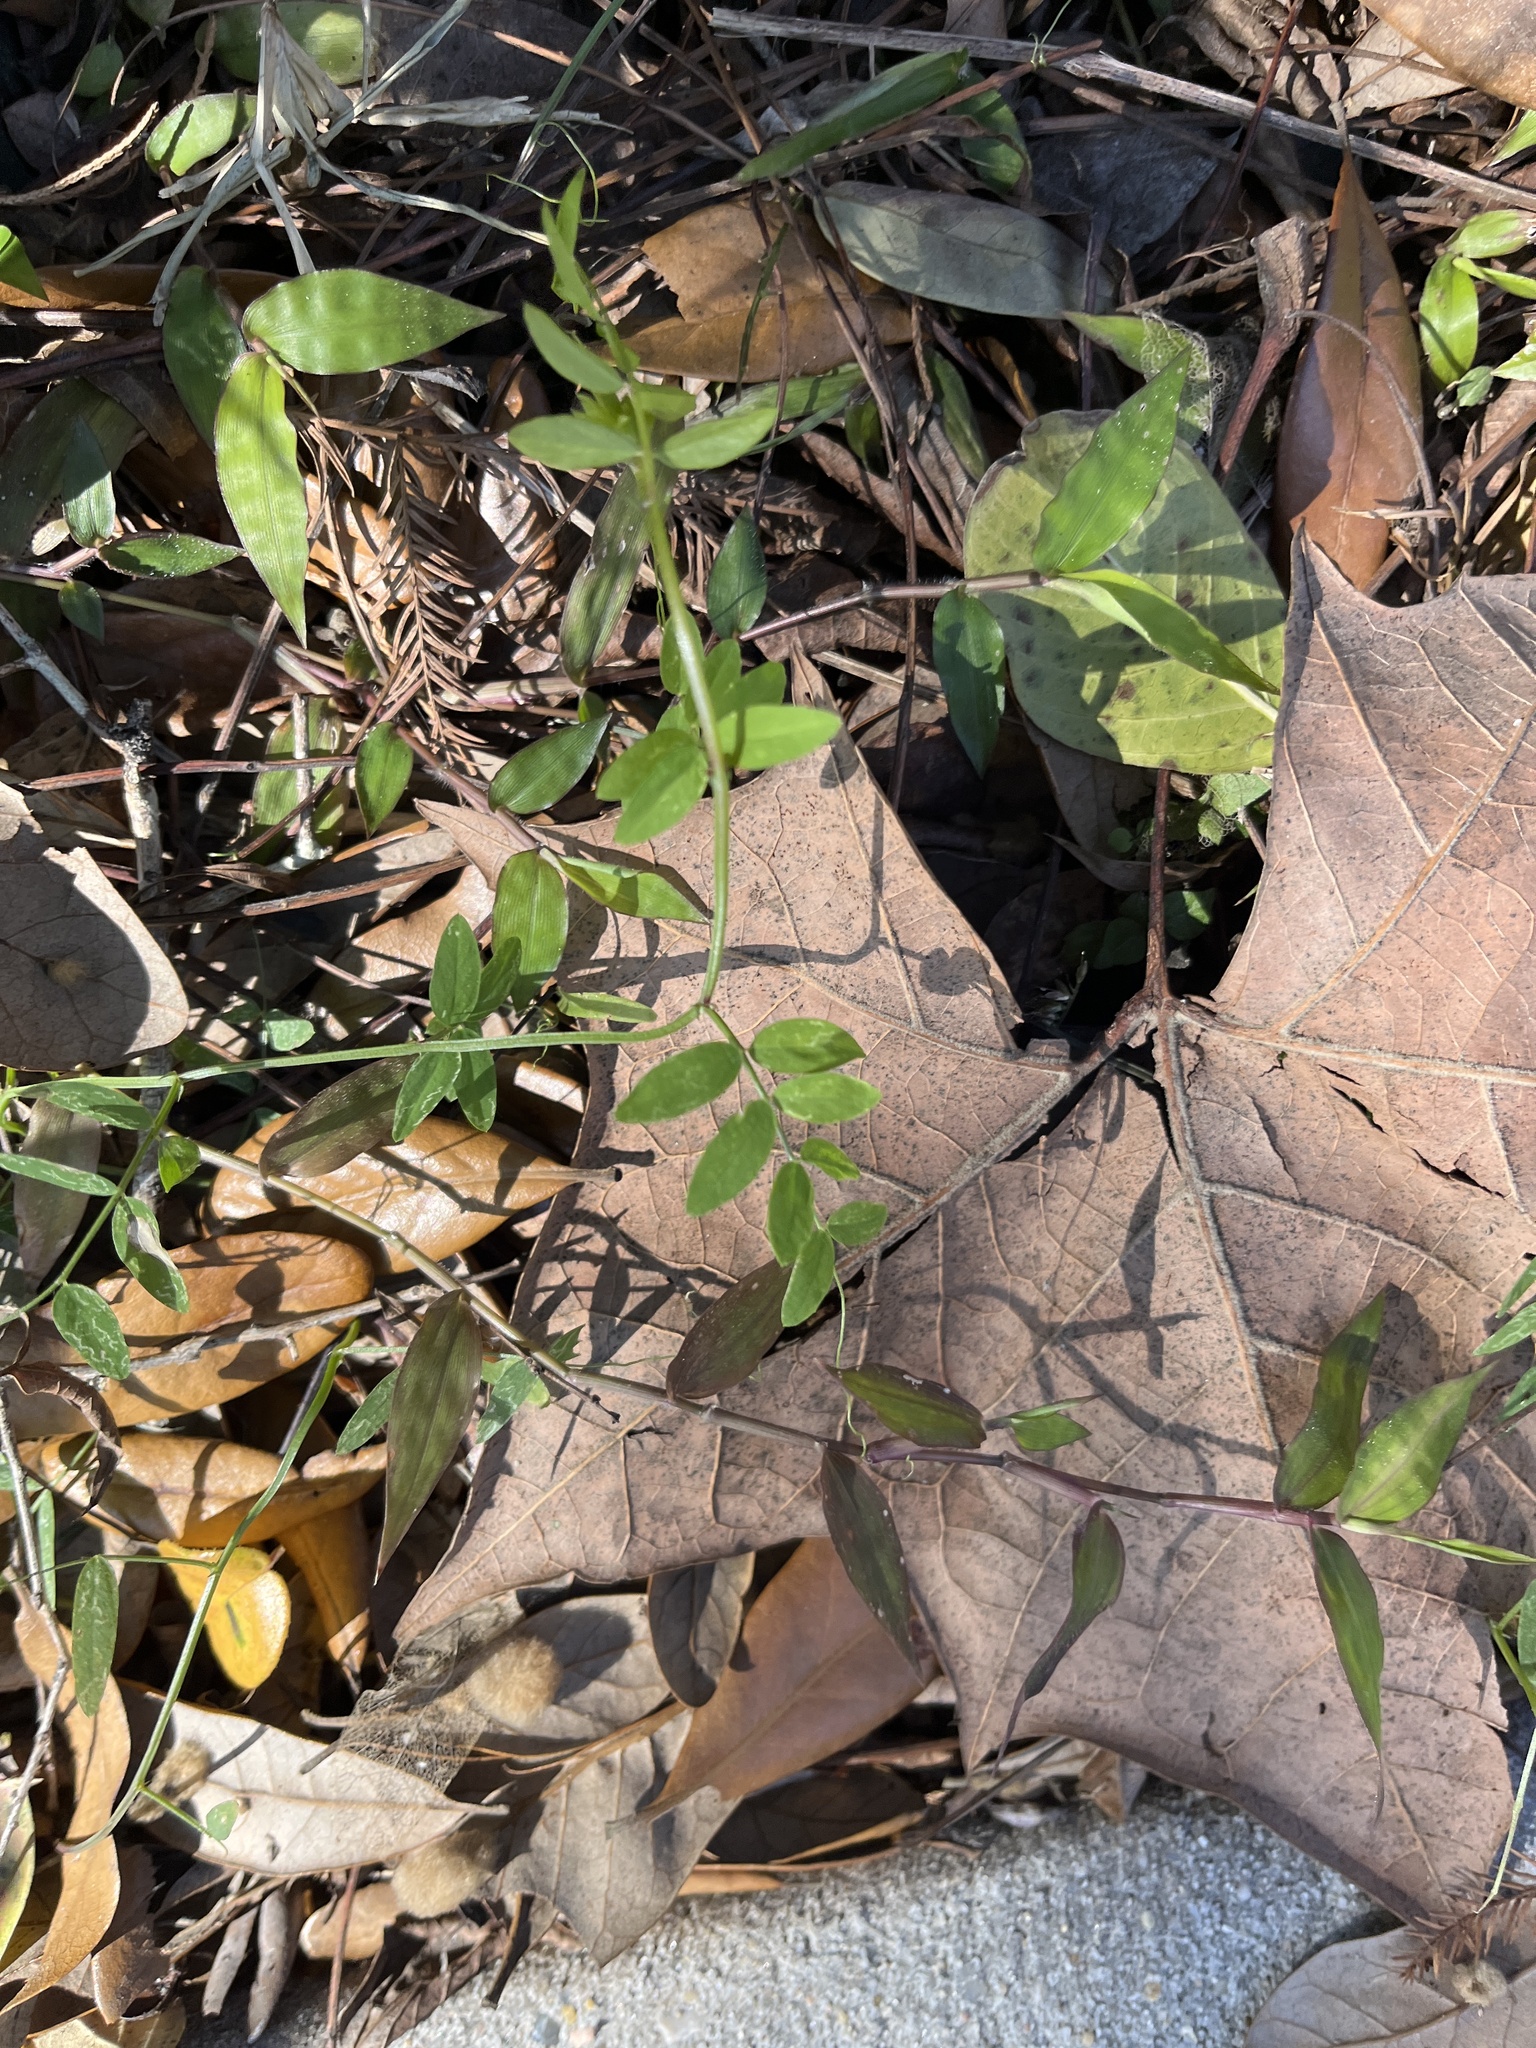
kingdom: Plantae
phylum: Tracheophyta
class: Liliopsida
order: Poales
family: Poaceae
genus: Oplismenus
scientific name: Oplismenus hirtellus
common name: Basketgrass
